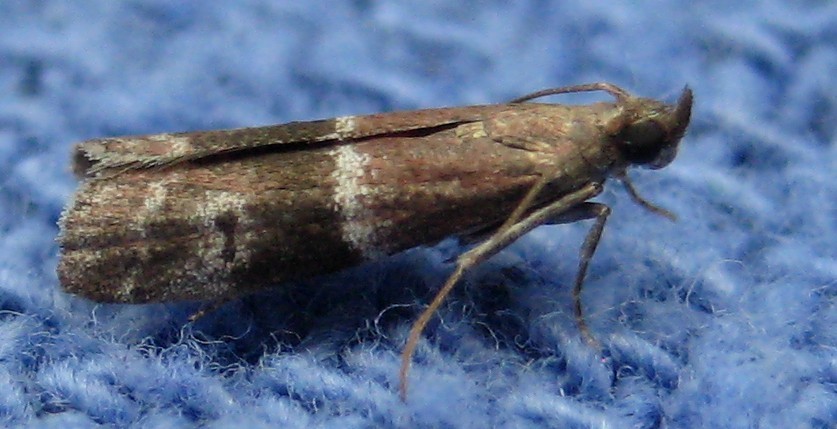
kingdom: Animalia
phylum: Arthropoda
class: Insecta
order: Lepidoptera
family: Pyralidae
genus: Moodna
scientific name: Moodna ostrinella
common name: Darker moodna moth
